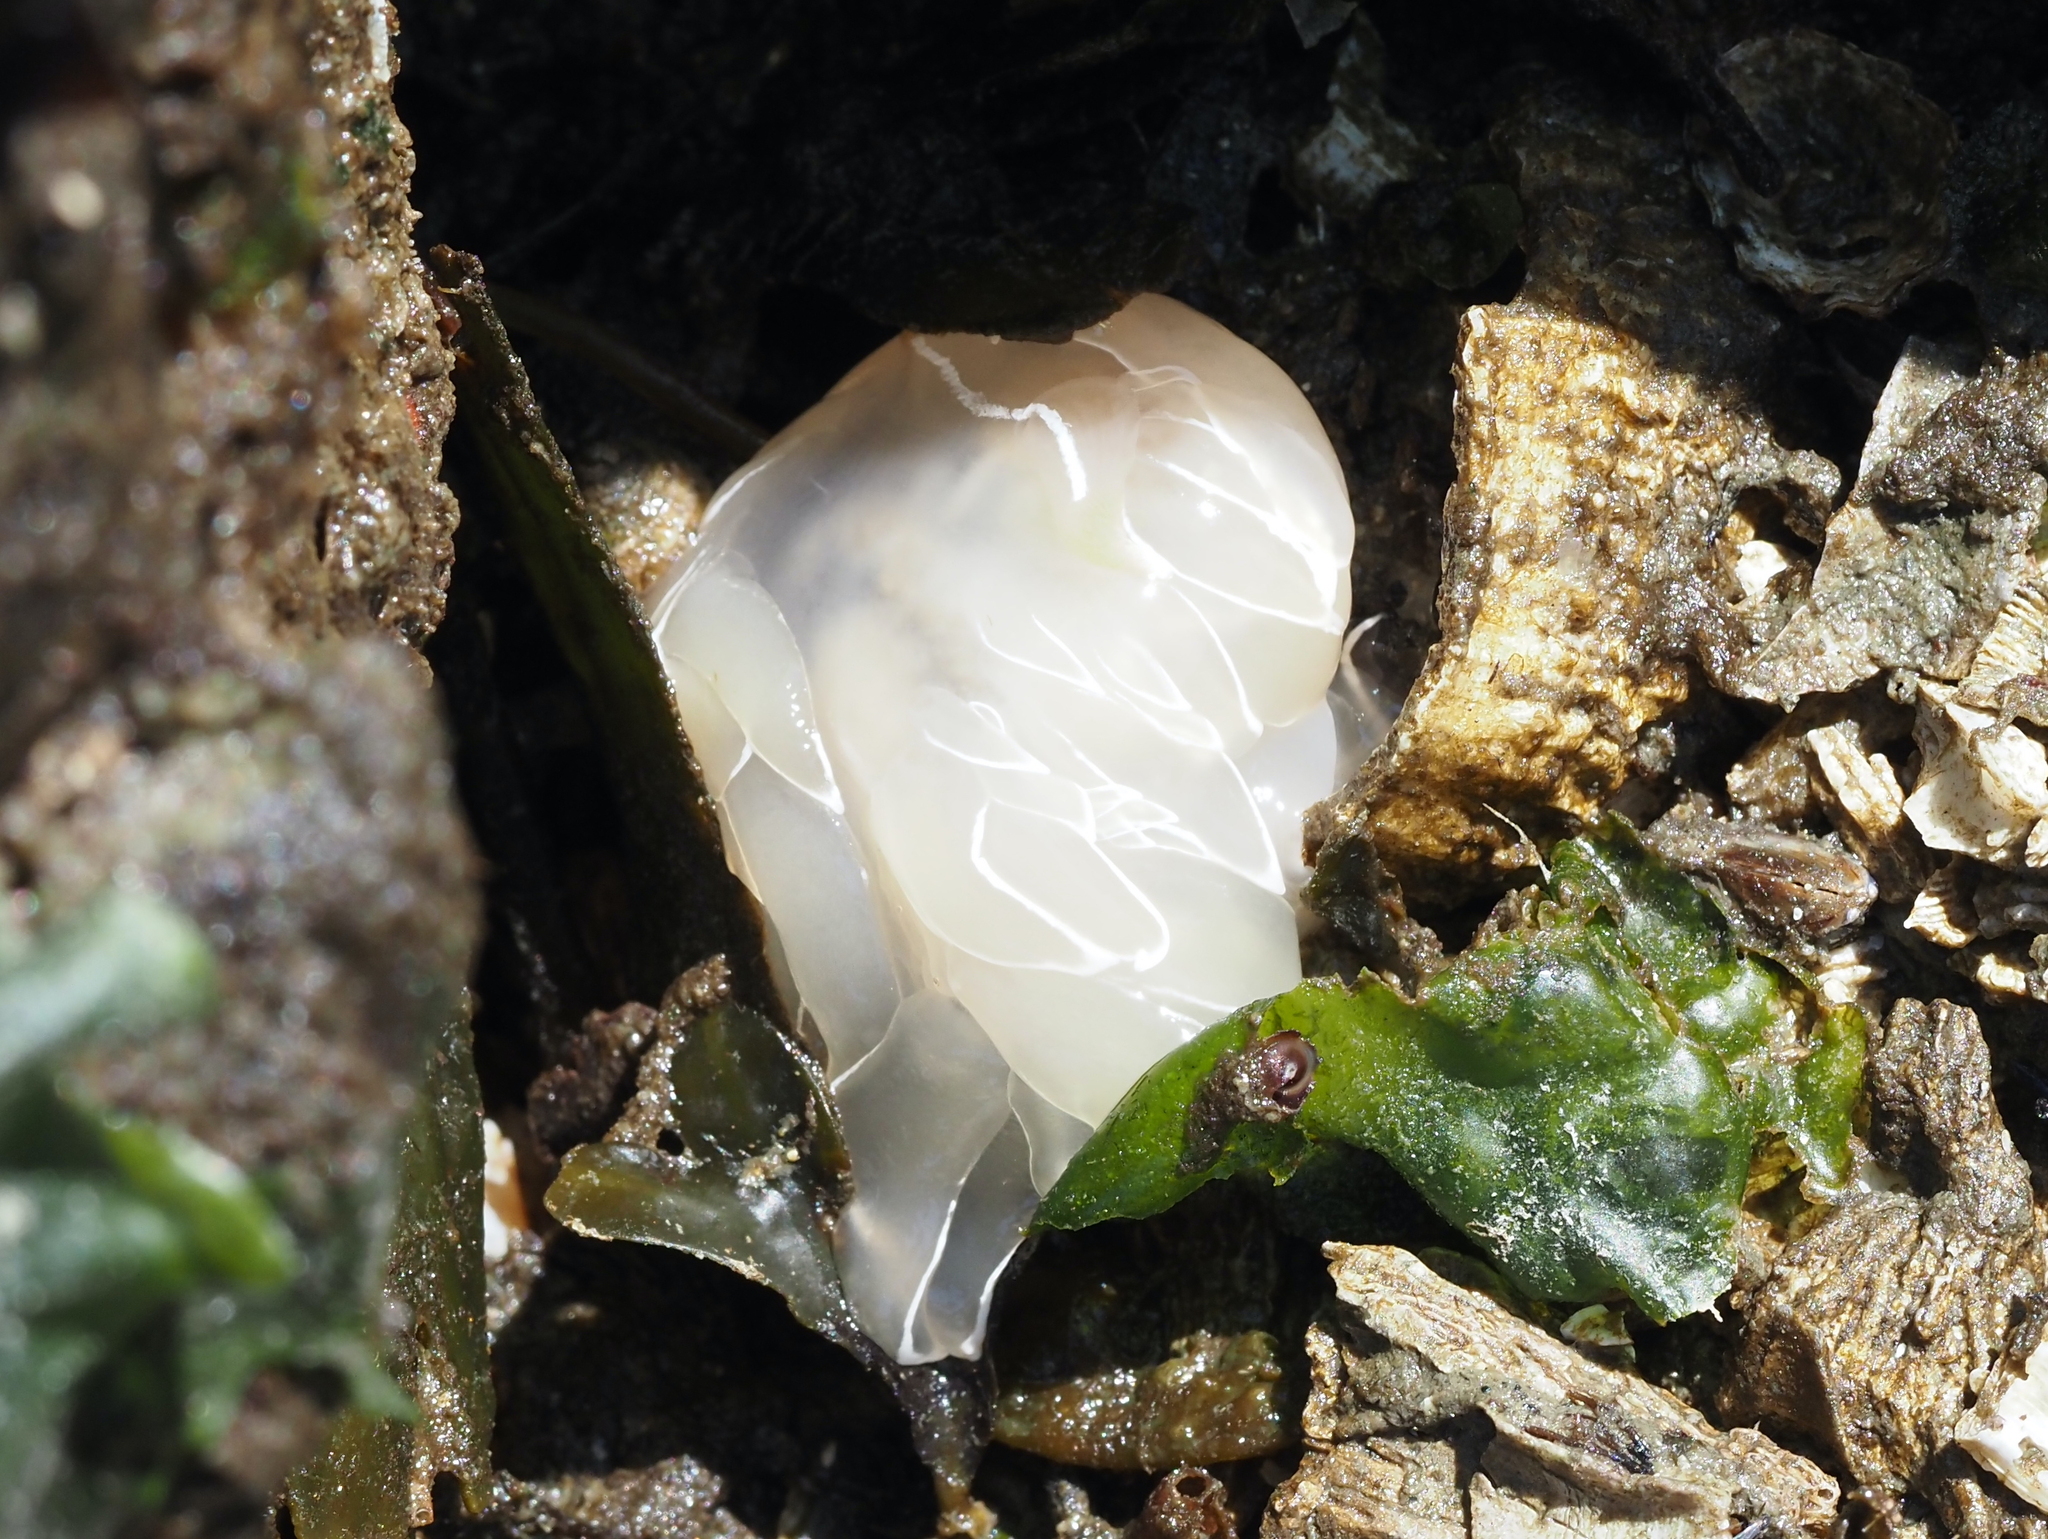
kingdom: Animalia
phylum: Mollusca
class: Gastropoda
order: Nudibranchia
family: Dironidae
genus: Dirona
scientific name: Dirona albolineata
